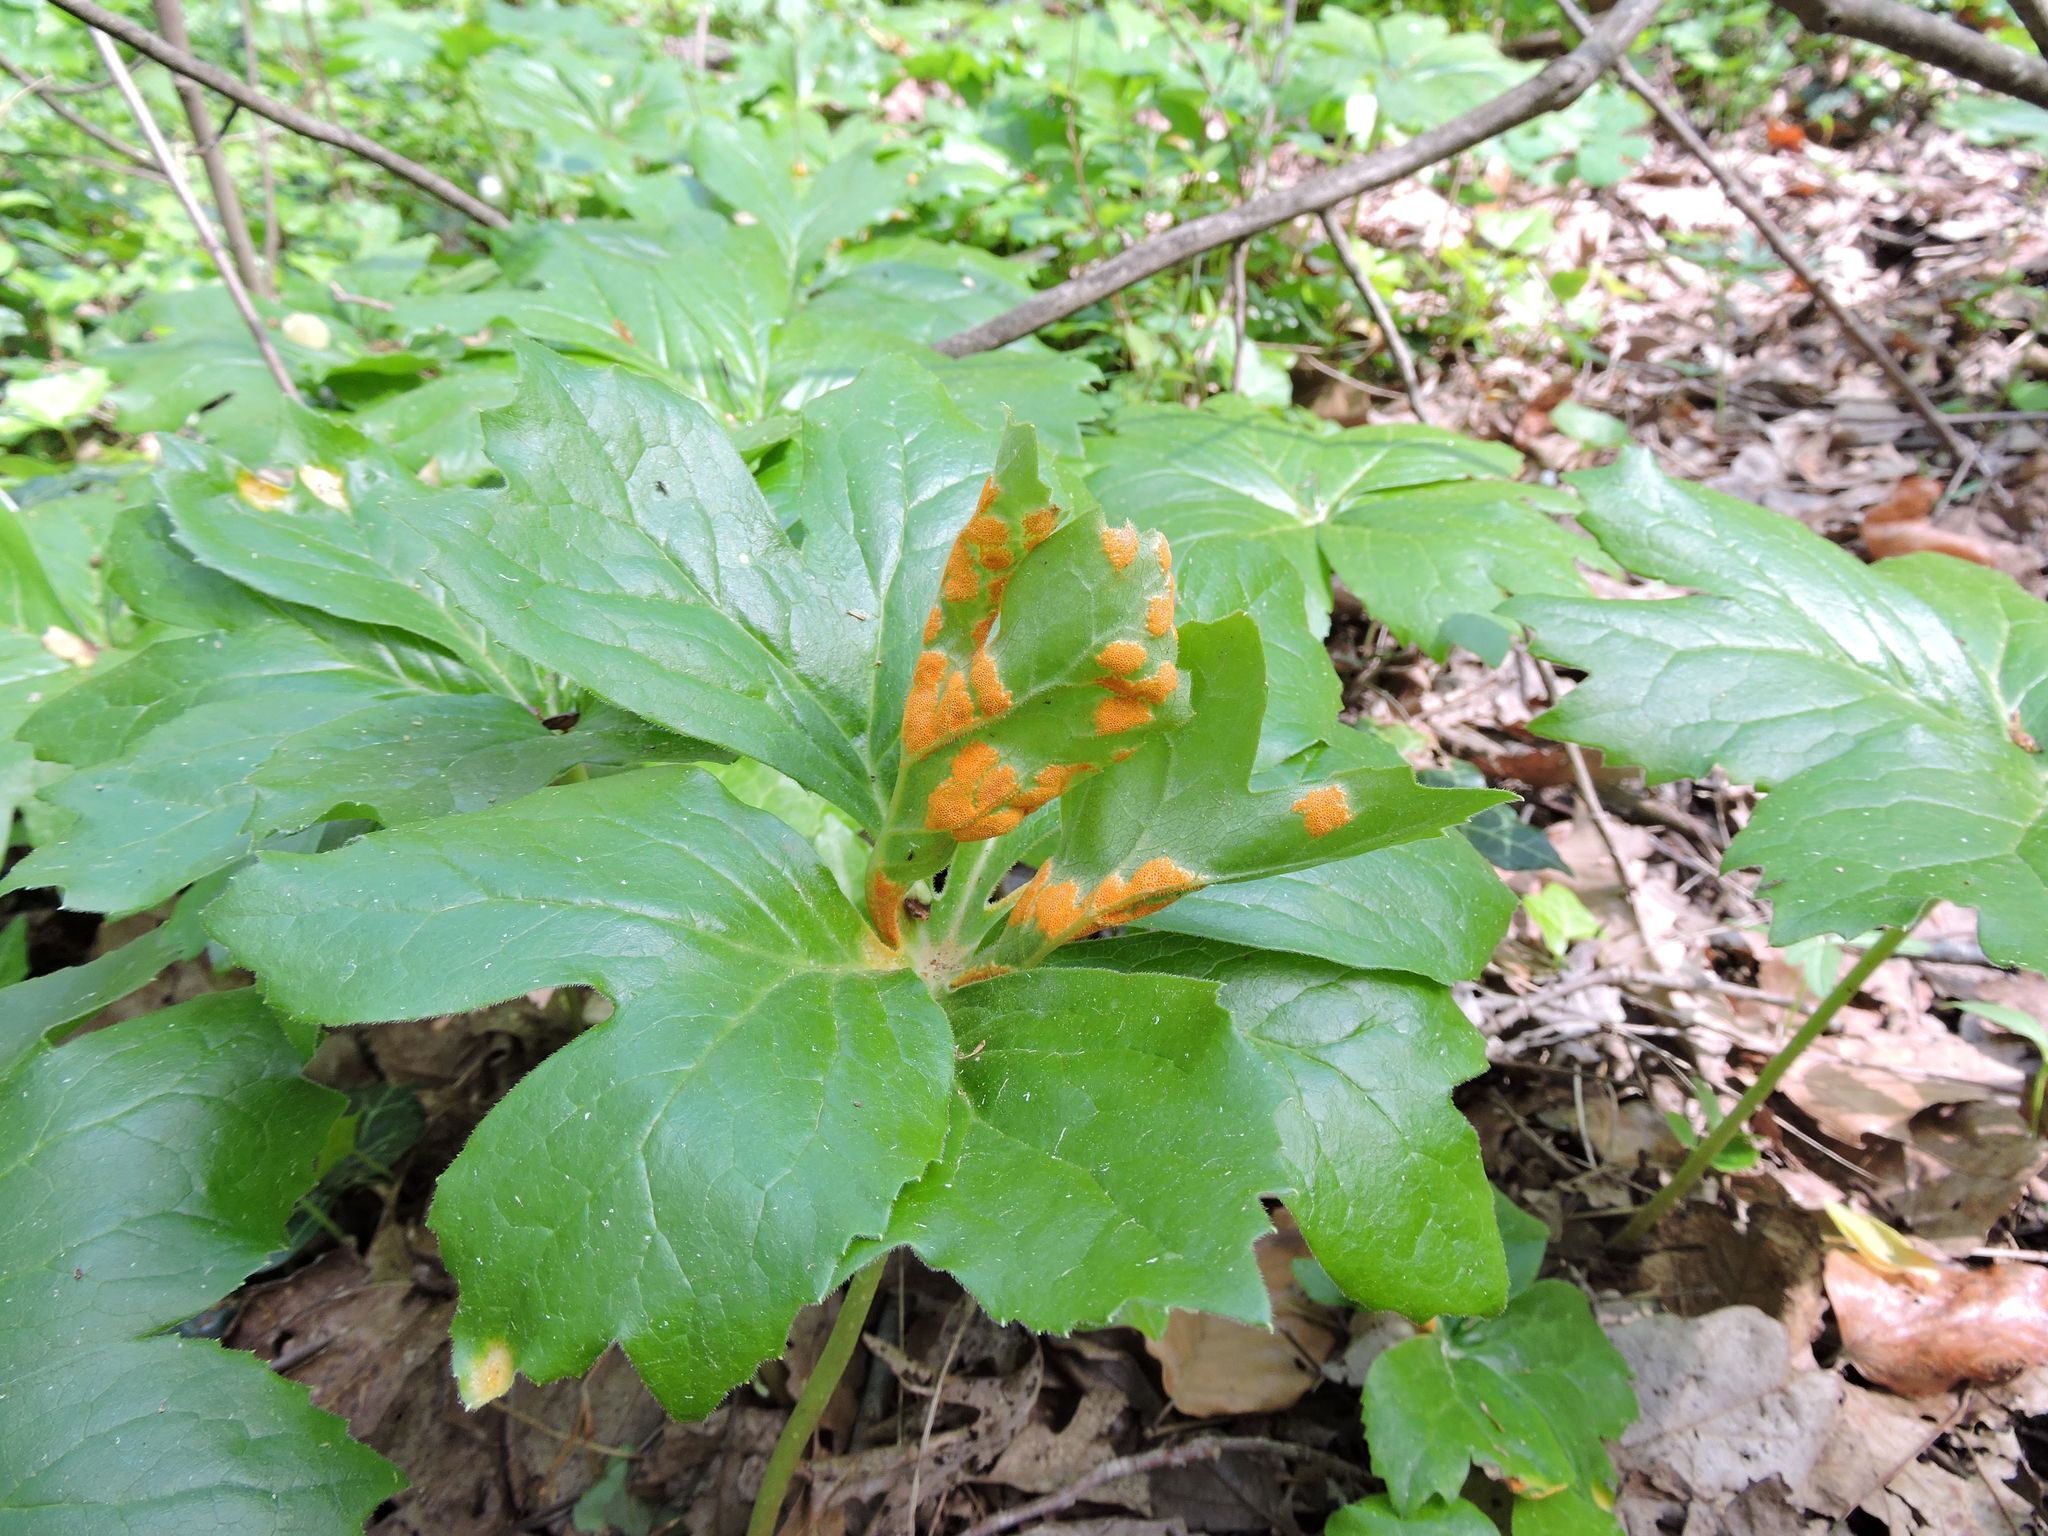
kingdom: Fungi
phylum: Basidiomycota
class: Pucciniomycetes
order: Pucciniales
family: Pucciniaceae
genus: Puccinia
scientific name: Puccinia podophylli
